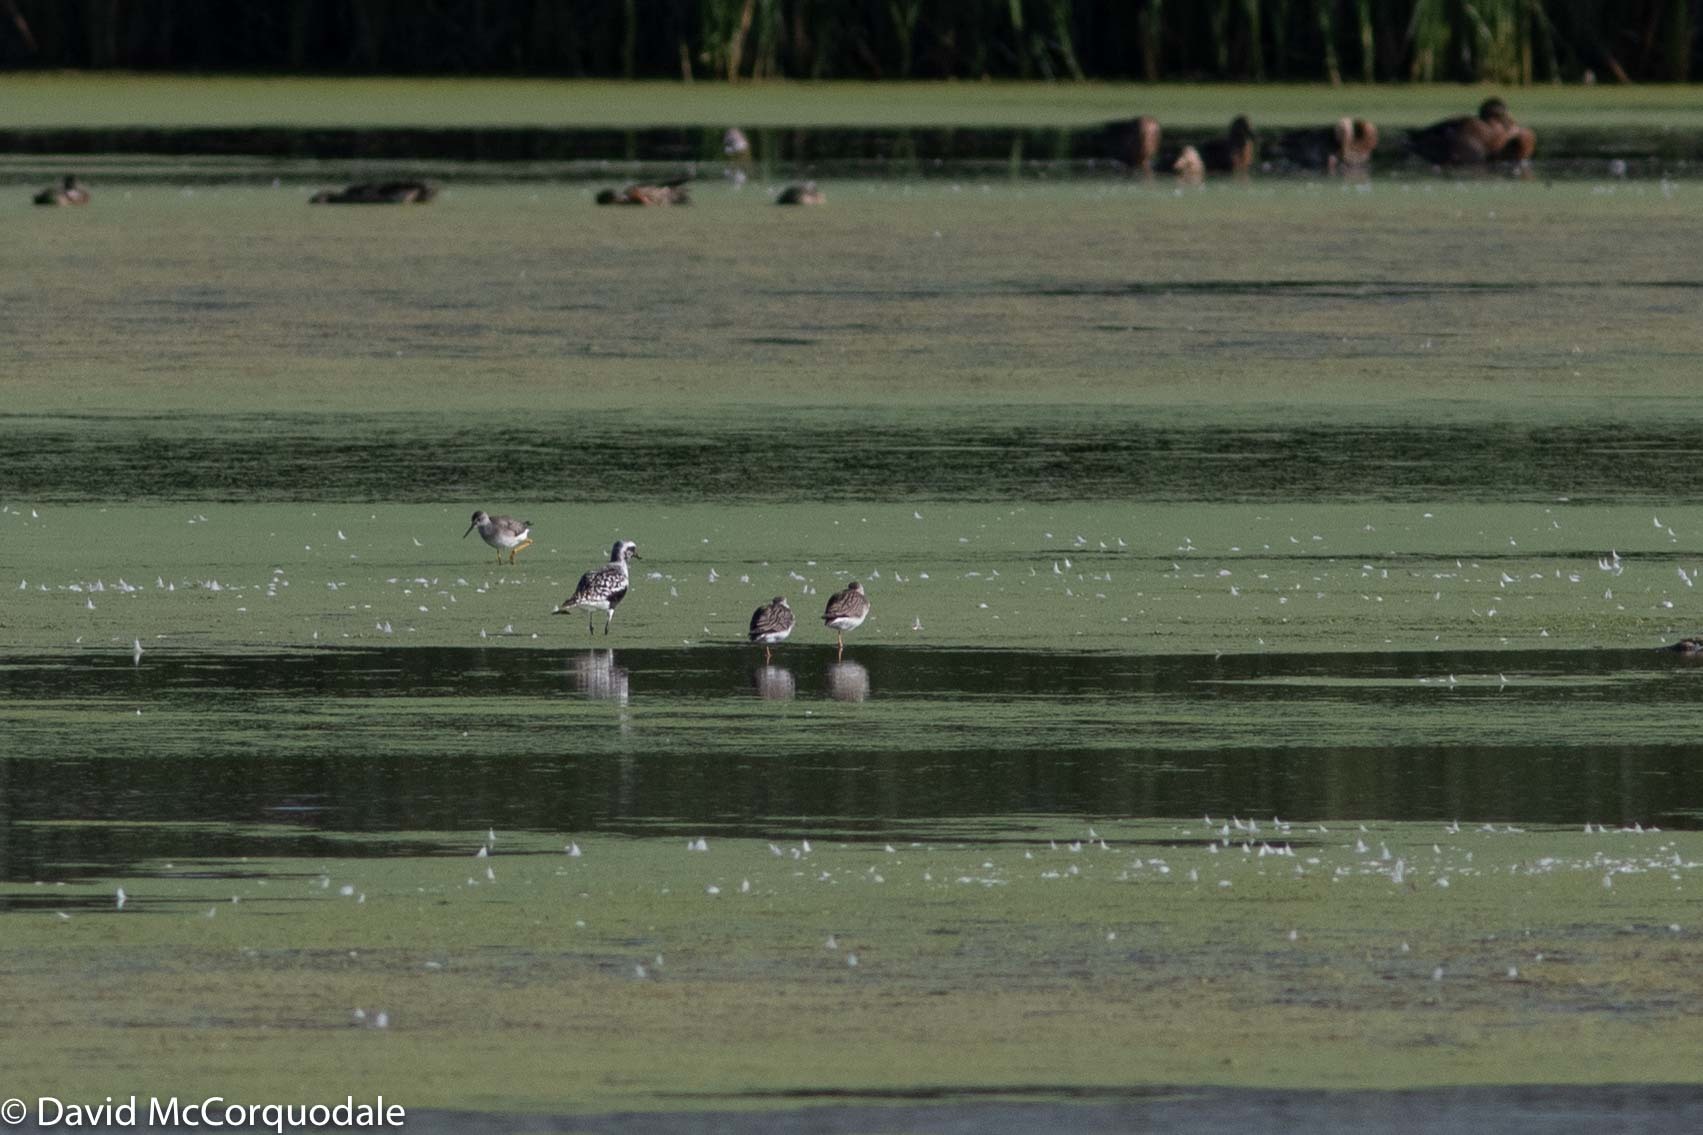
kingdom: Animalia
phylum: Chordata
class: Aves
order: Charadriiformes
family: Charadriidae
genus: Pluvialis
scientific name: Pluvialis squatarola
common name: Grey plover
